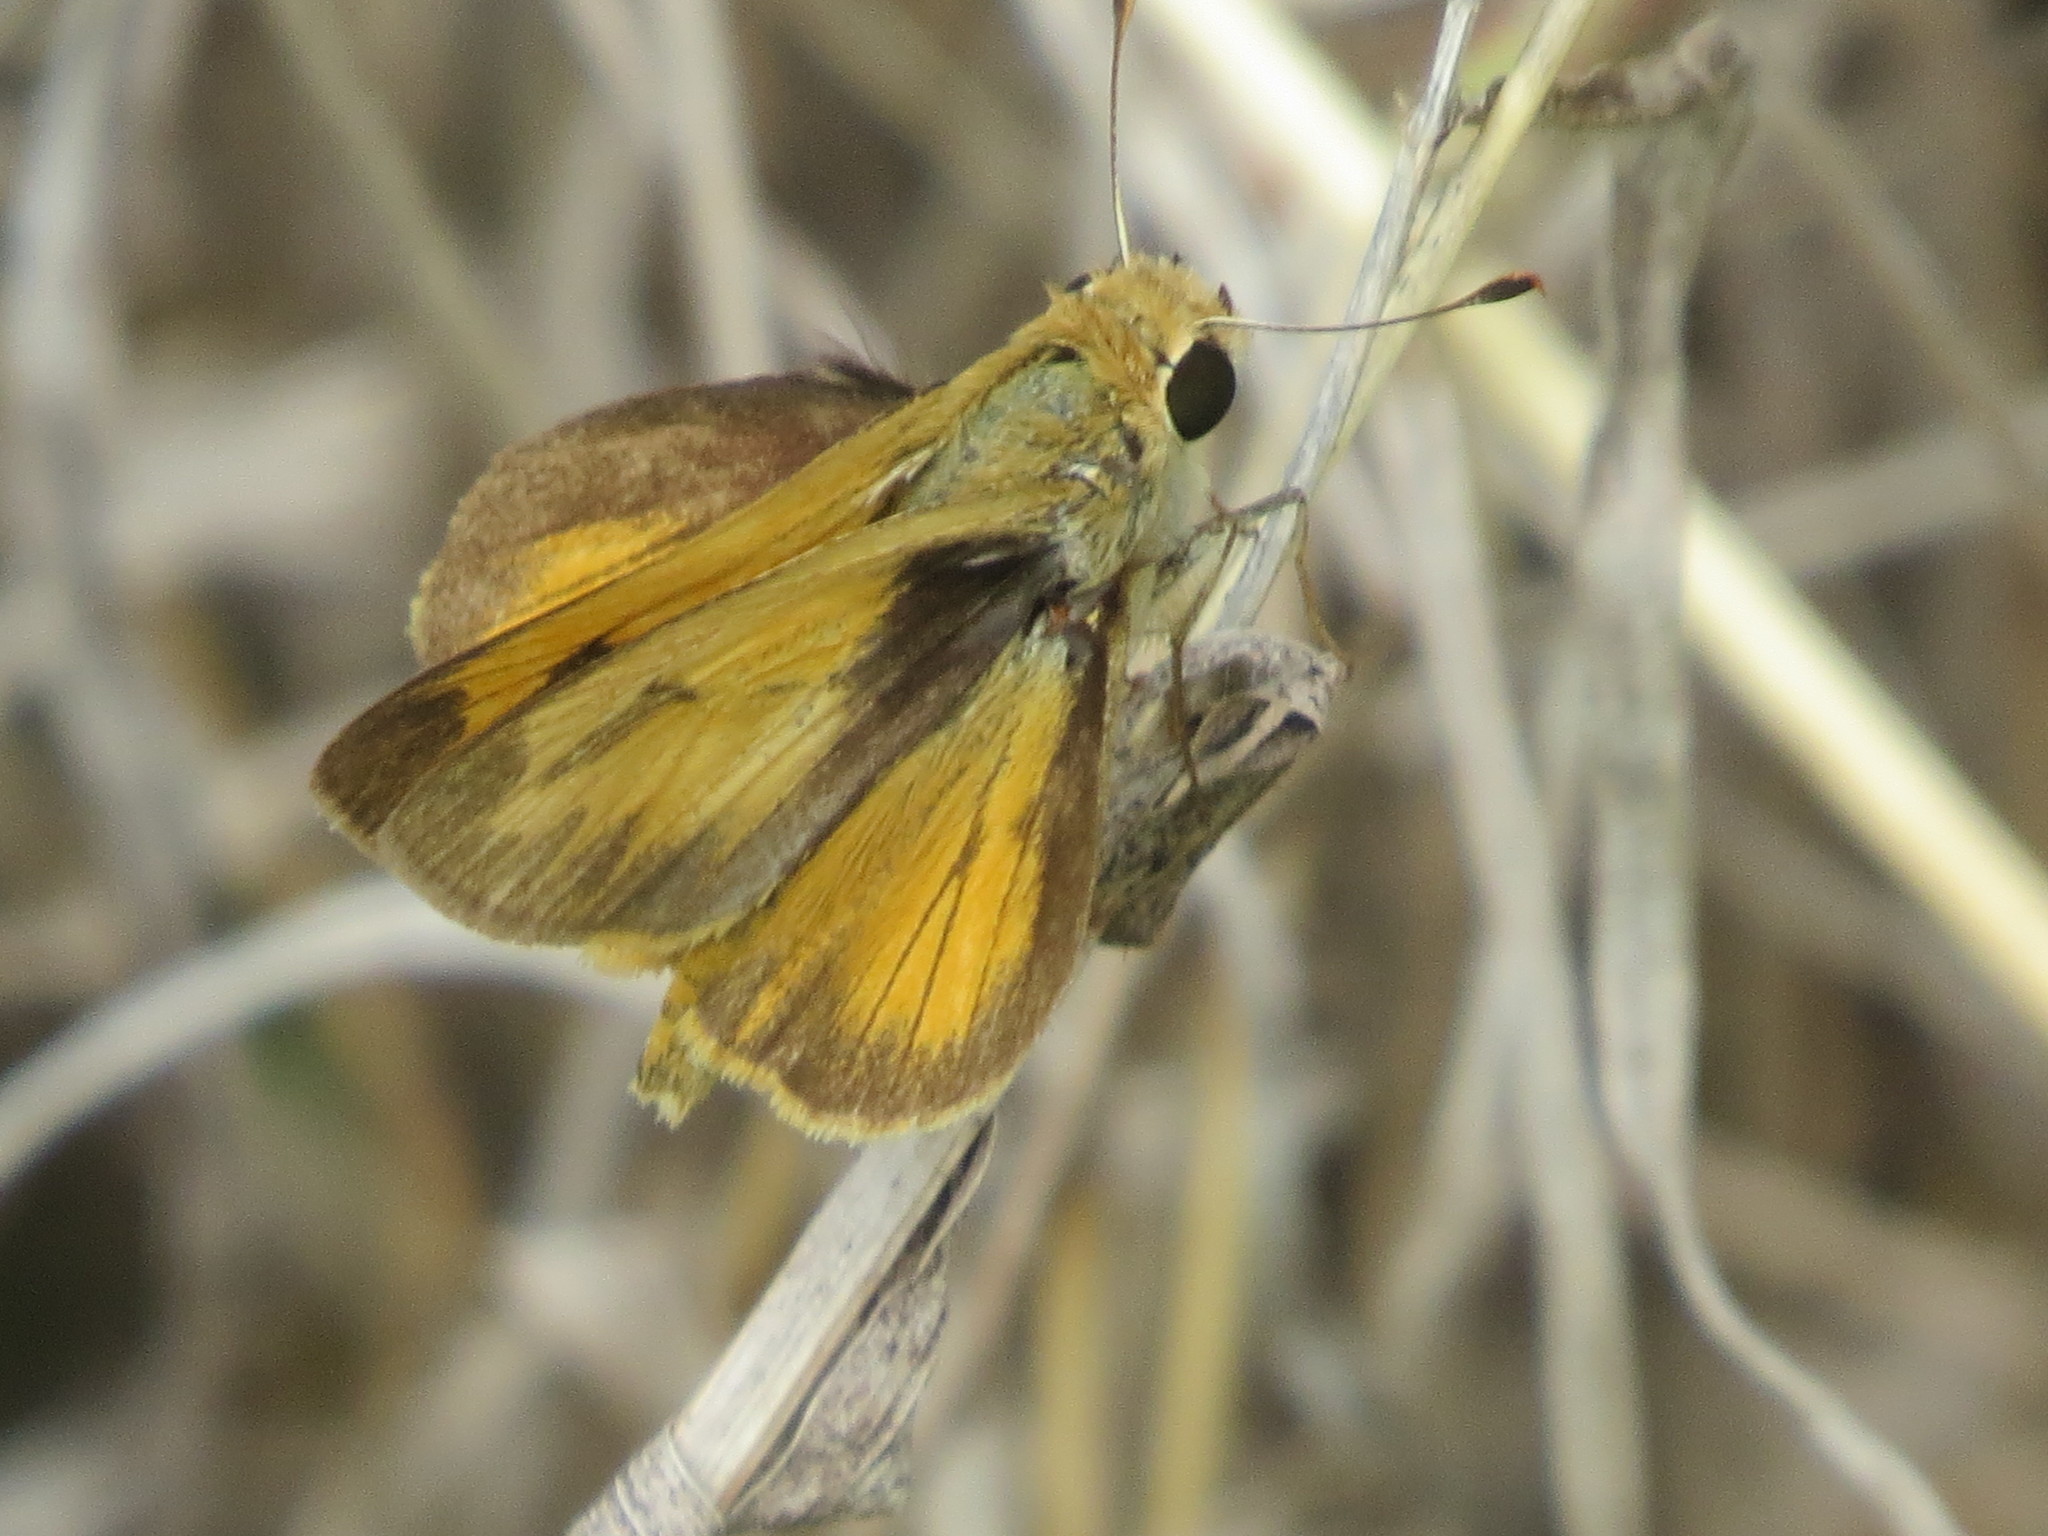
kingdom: Animalia
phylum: Arthropoda
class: Insecta
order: Lepidoptera
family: Hesperiidae
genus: Polites
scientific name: Polites vibex
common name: Whirlabout
